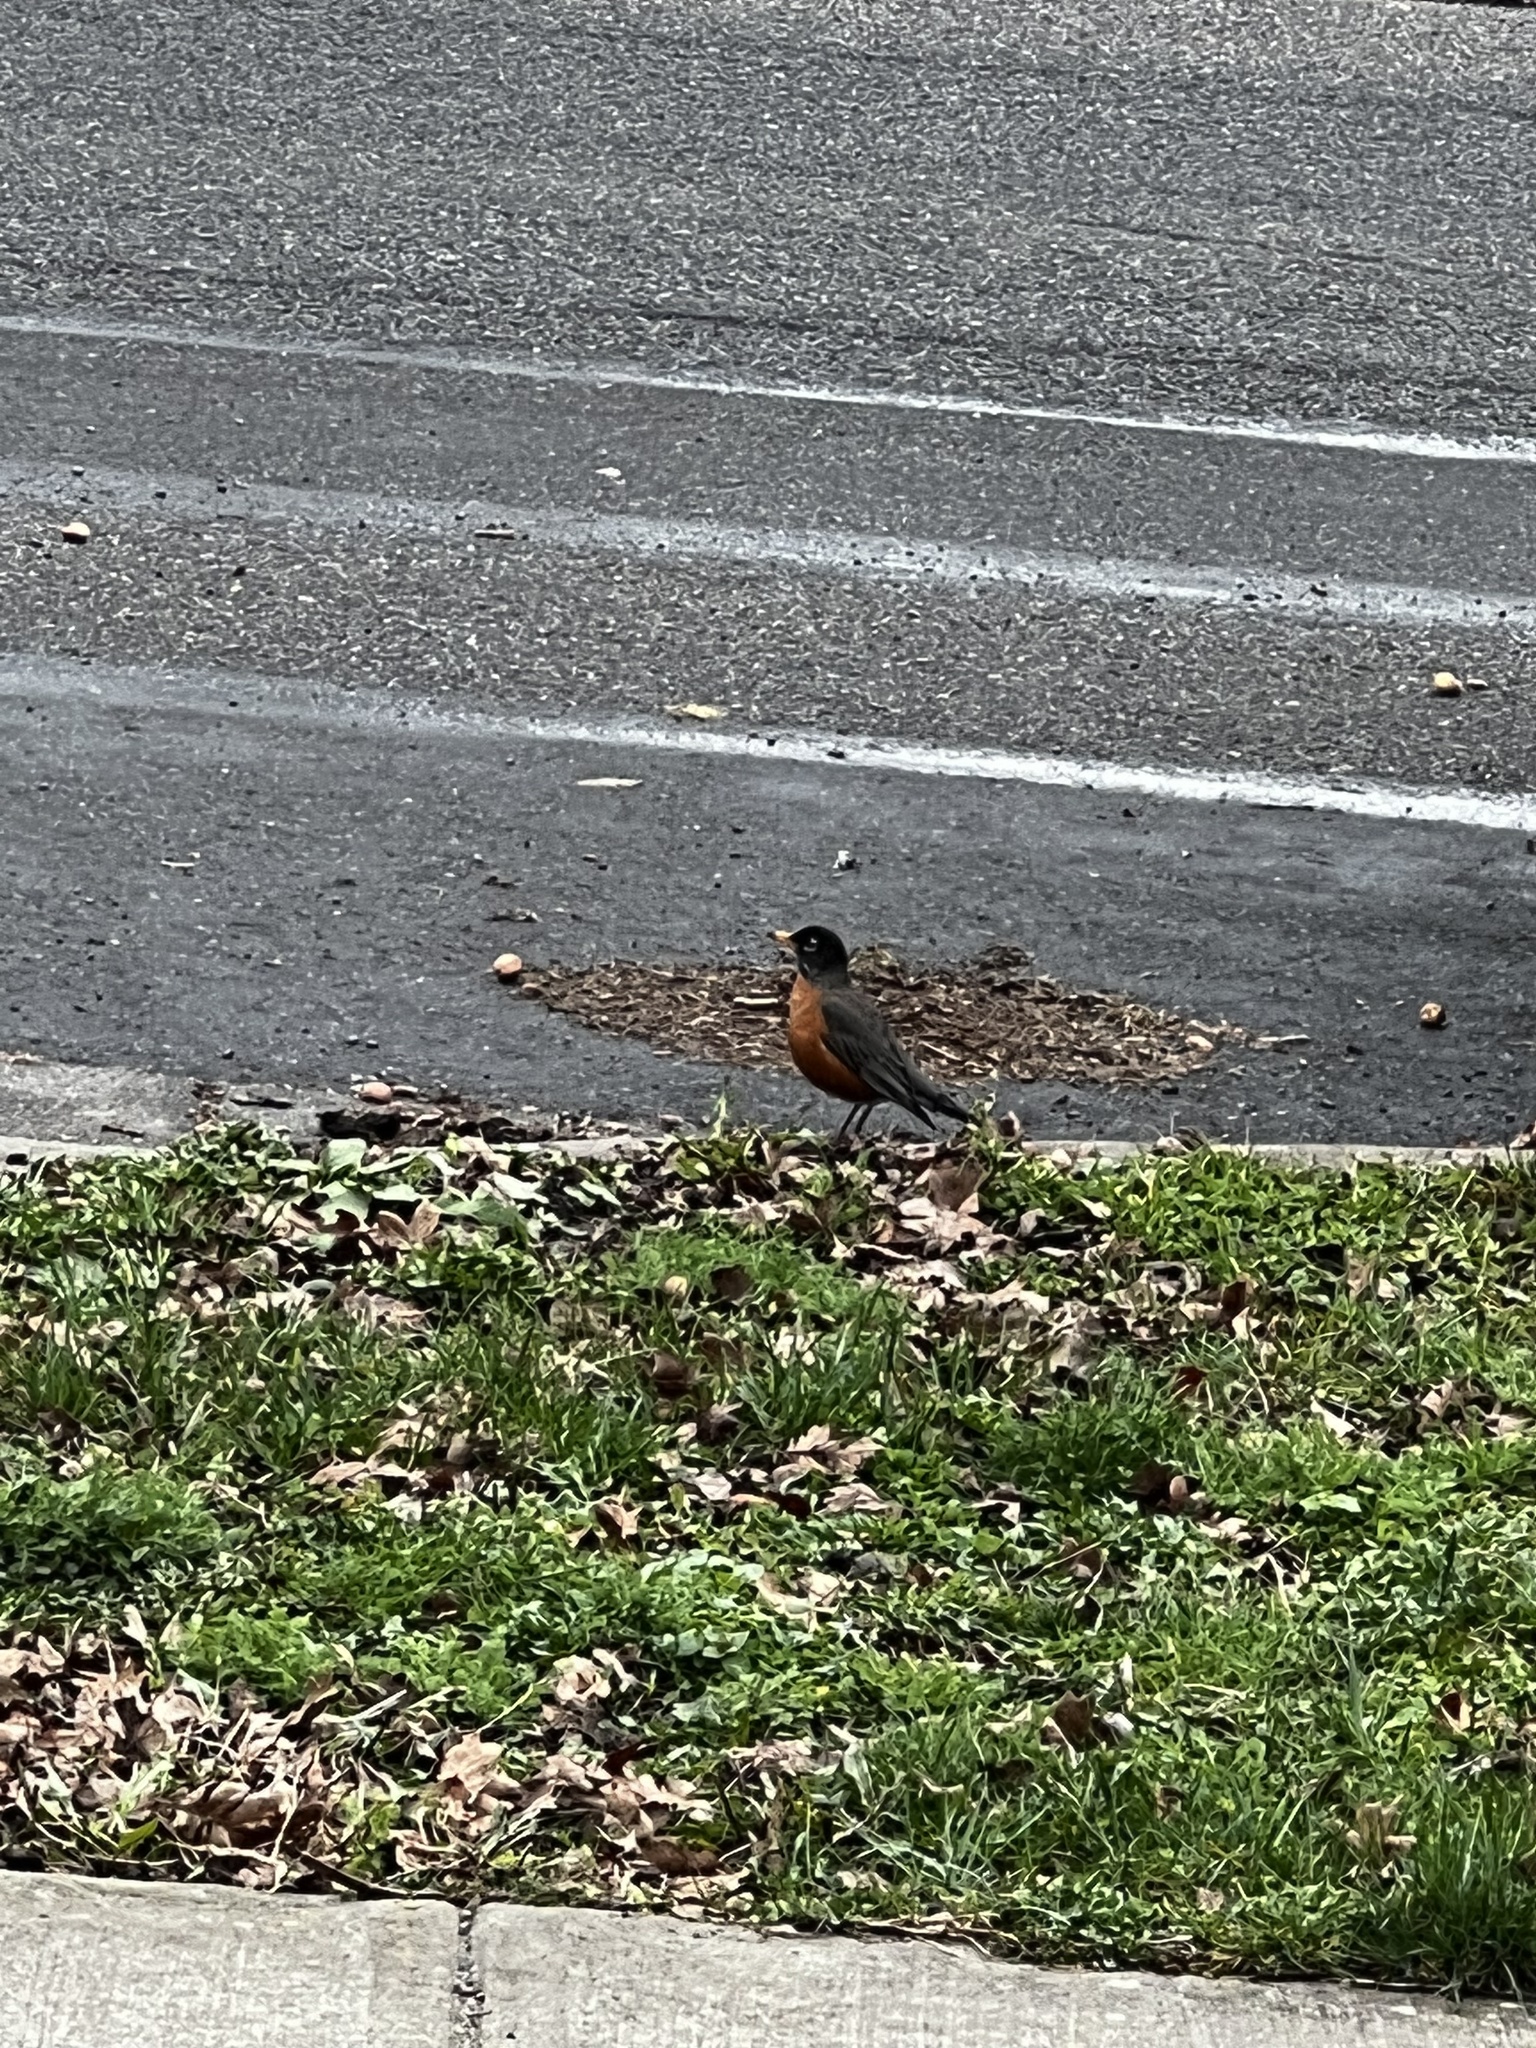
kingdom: Animalia
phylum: Chordata
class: Aves
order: Passeriformes
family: Turdidae
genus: Turdus
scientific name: Turdus migratorius
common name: American robin
